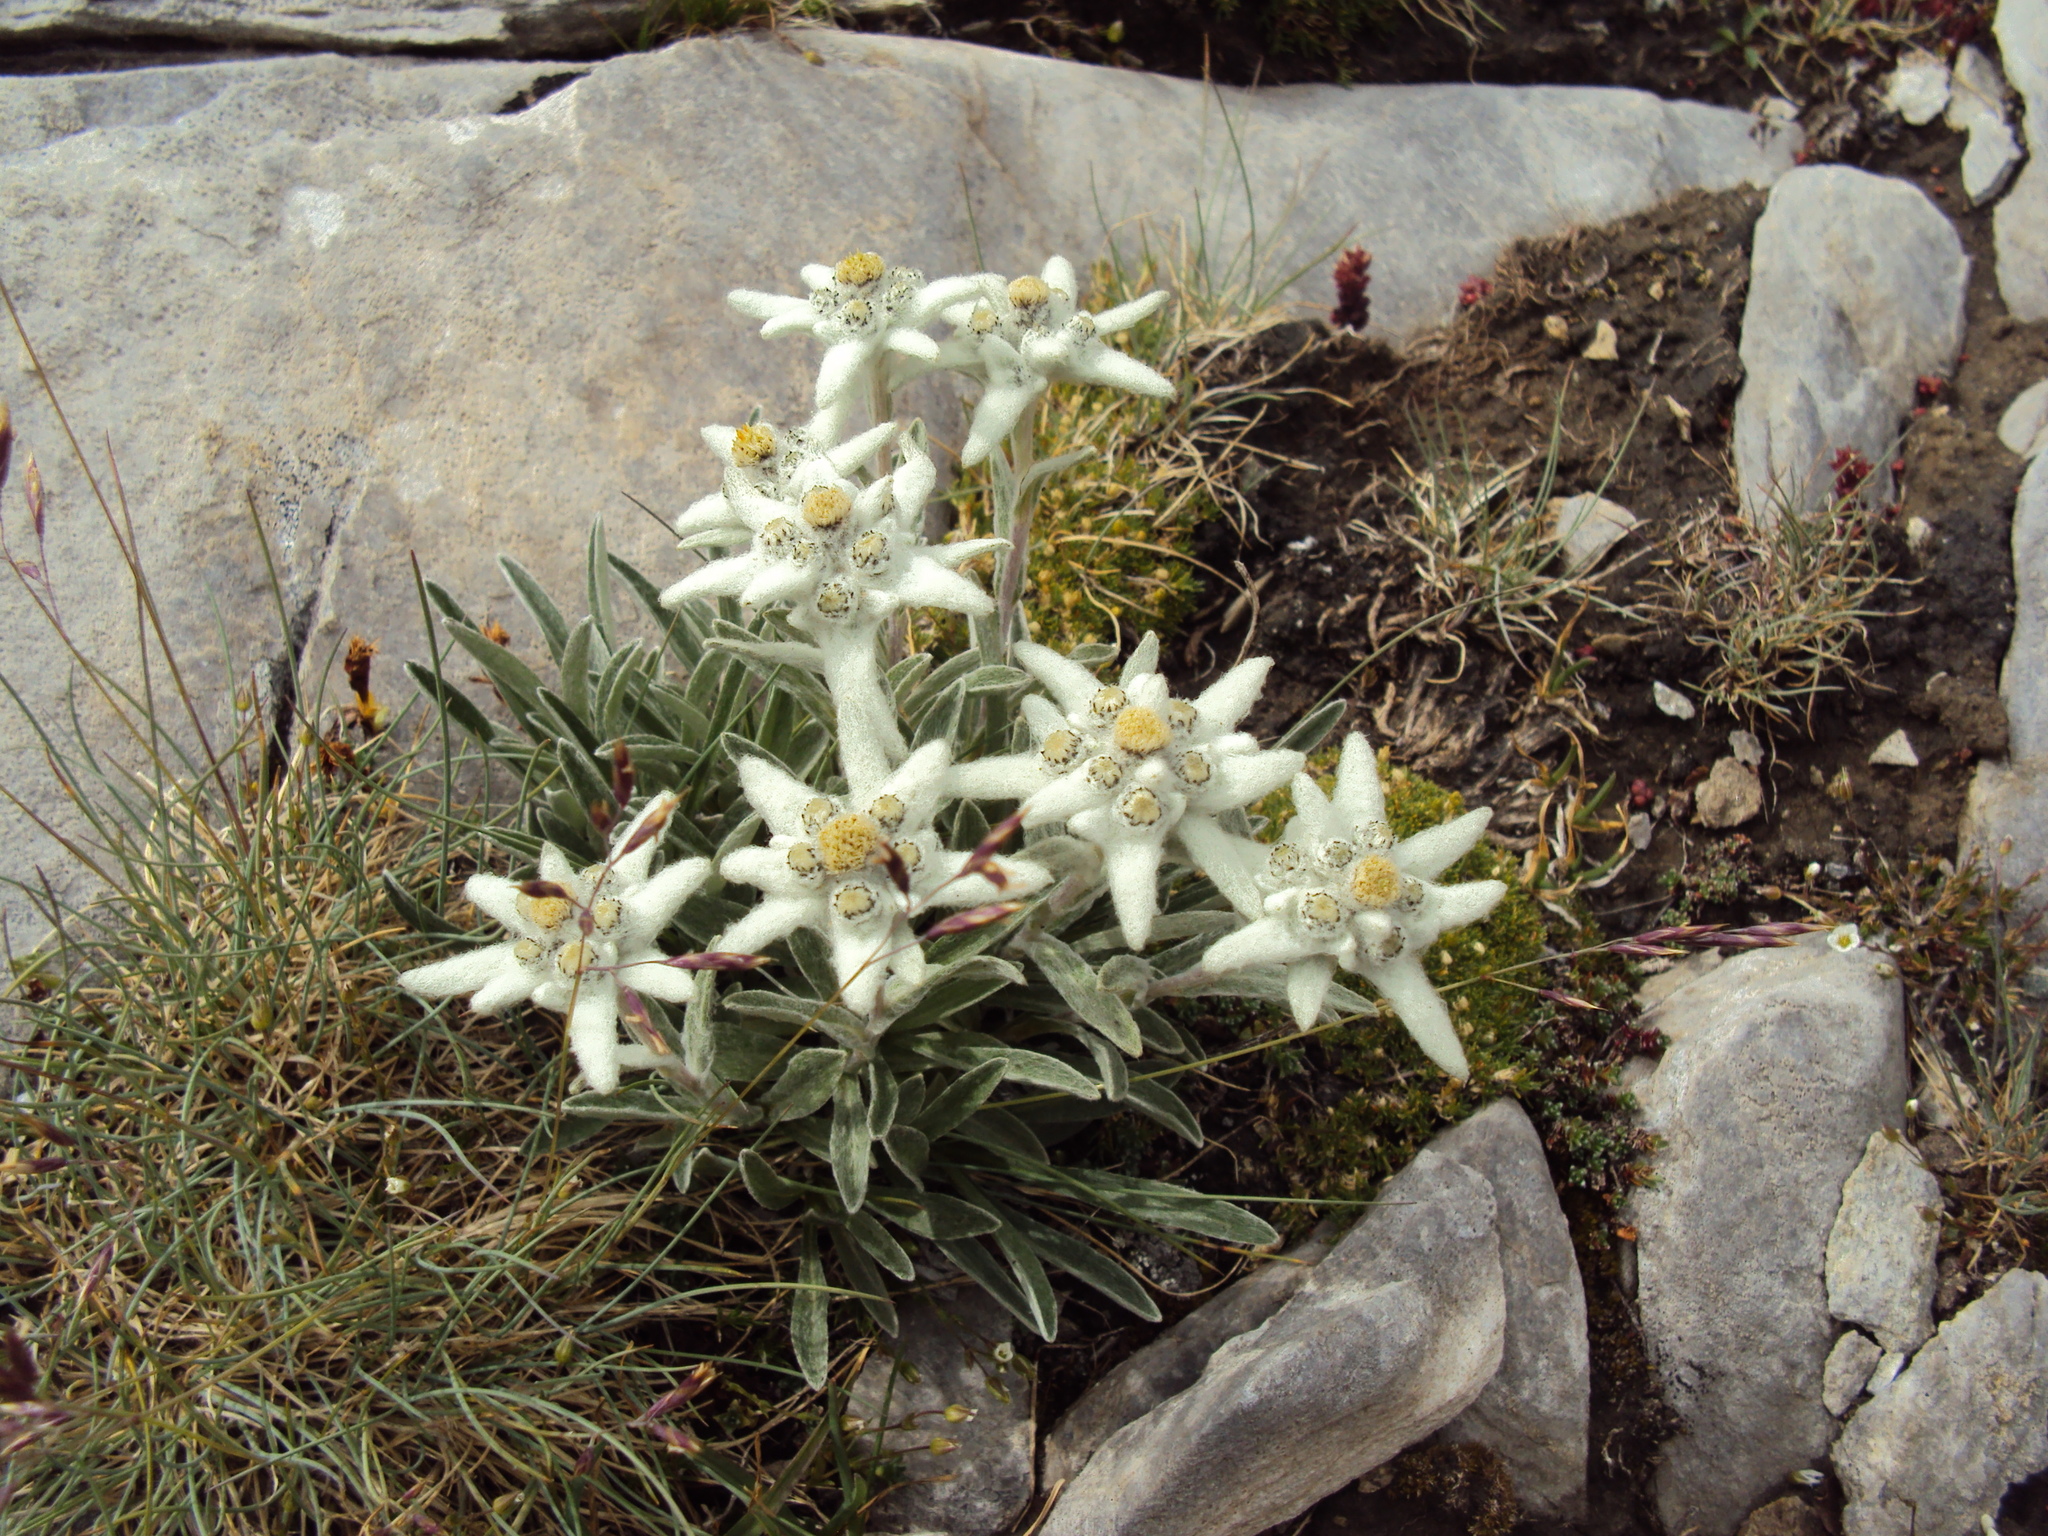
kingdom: Plantae
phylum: Tracheophyta
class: Magnoliopsida
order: Asterales
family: Asteraceae
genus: Leontopodium
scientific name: Leontopodium nivale
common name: Edelweiss
